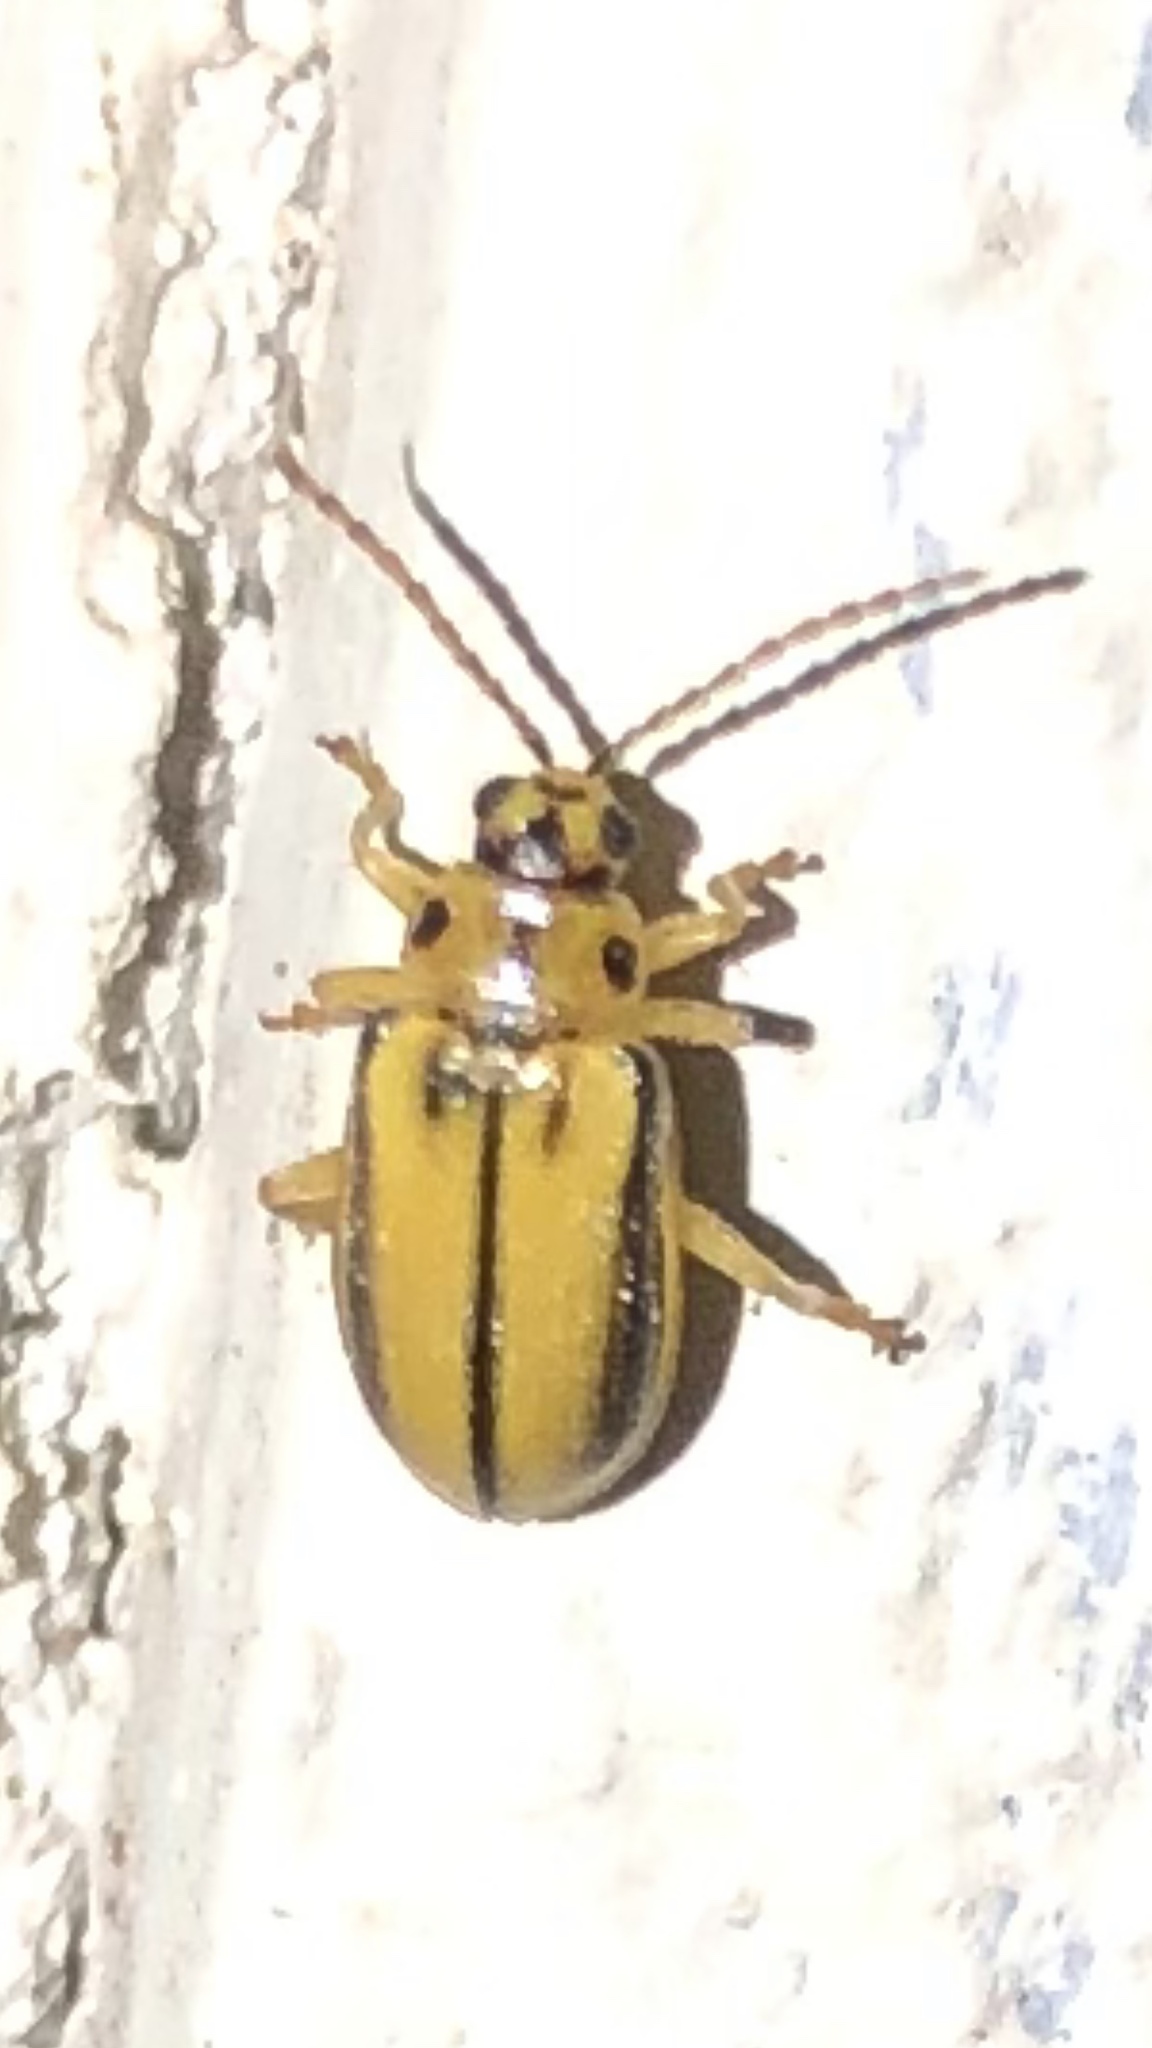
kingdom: Animalia
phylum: Arthropoda
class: Insecta
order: Coleoptera
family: Chrysomelidae
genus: Xanthogaleruca
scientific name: Xanthogaleruca luteola
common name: Elm leaf beetle
